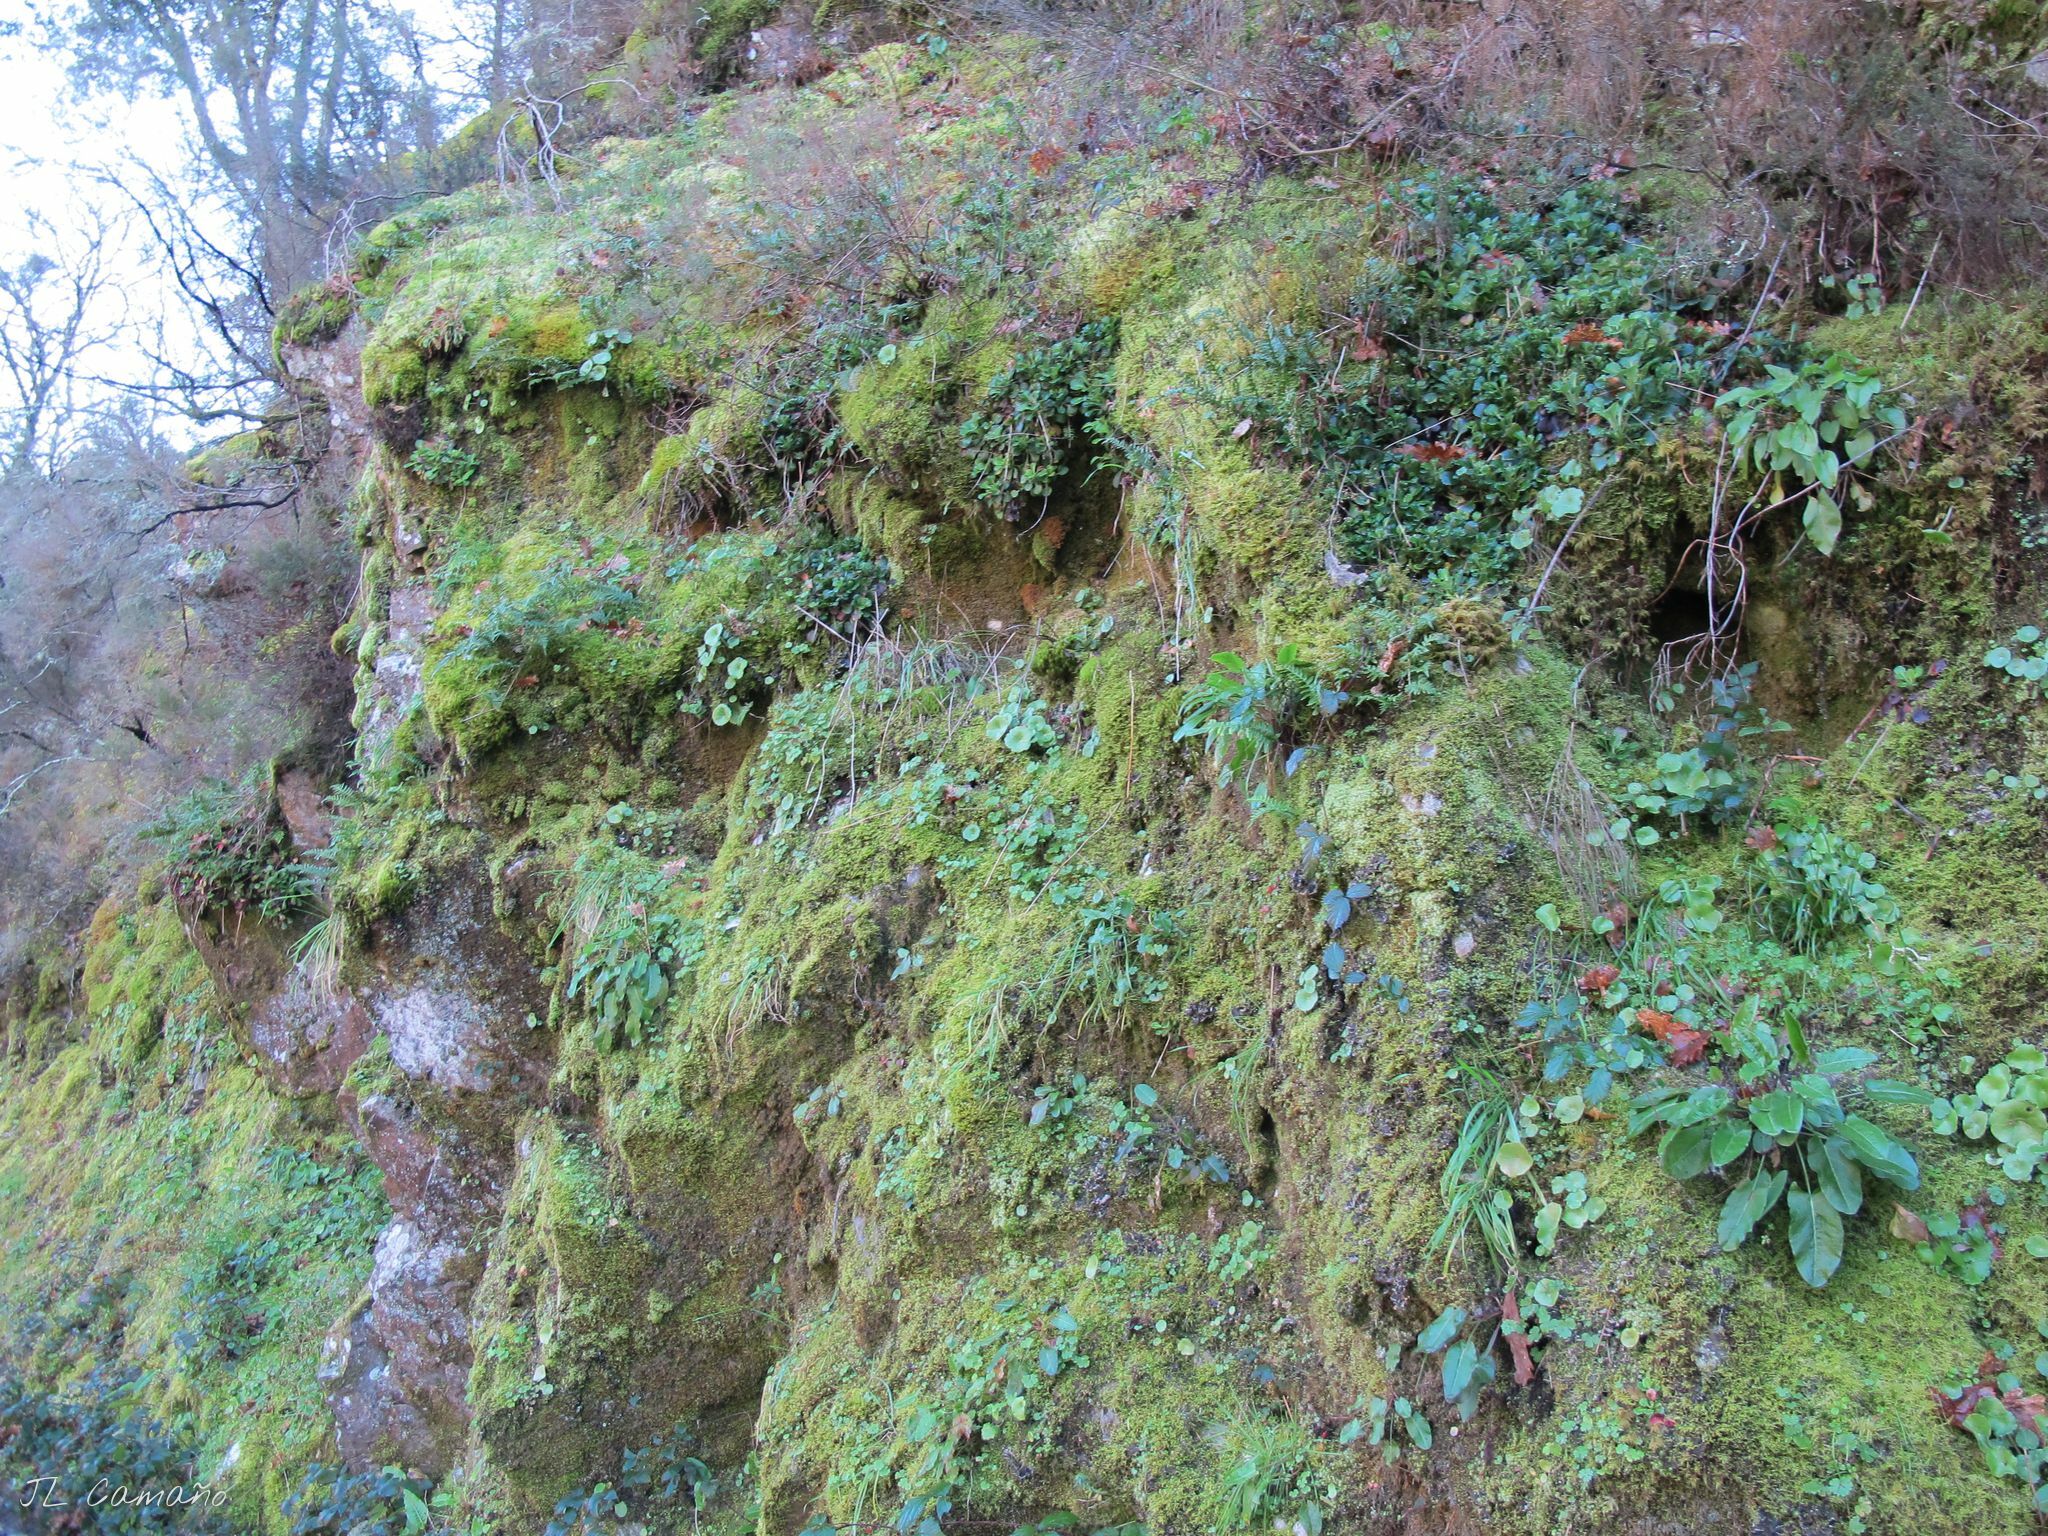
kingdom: Plantae
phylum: Bryophyta
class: Bryopsida
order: Hypnales
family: Hylocomiaceae
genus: Hylocomium
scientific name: Hylocomium splendens
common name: Stairstep moss
